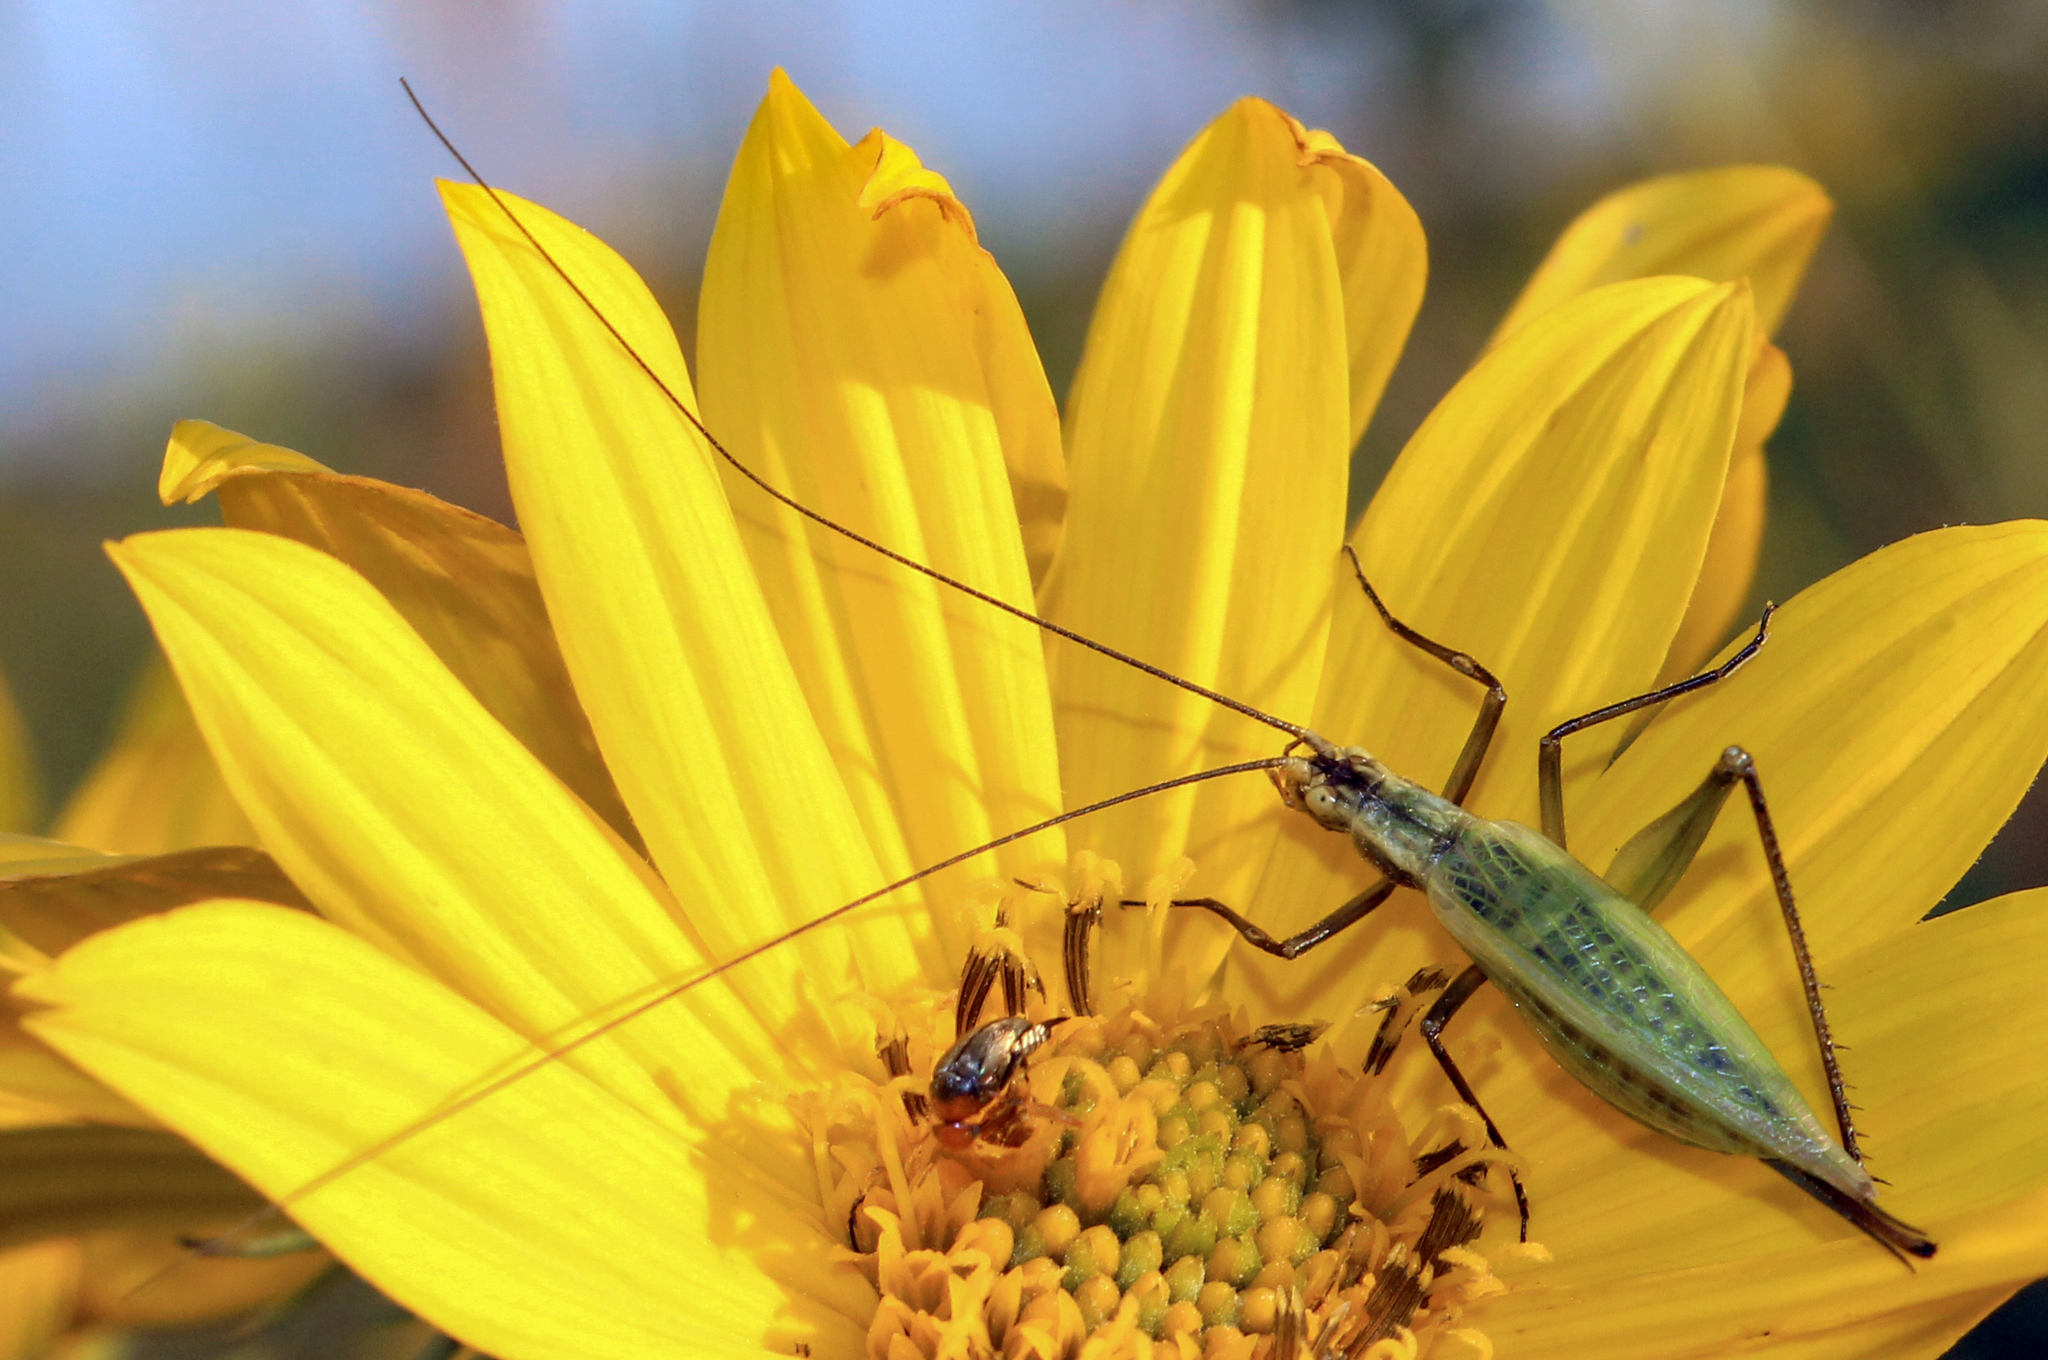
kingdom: Animalia
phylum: Arthropoda
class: Insecta
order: Orthoptera
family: Gryllidae
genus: Oecanthus
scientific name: Oecanthus forbesi
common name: Forbes’s tree cricket
